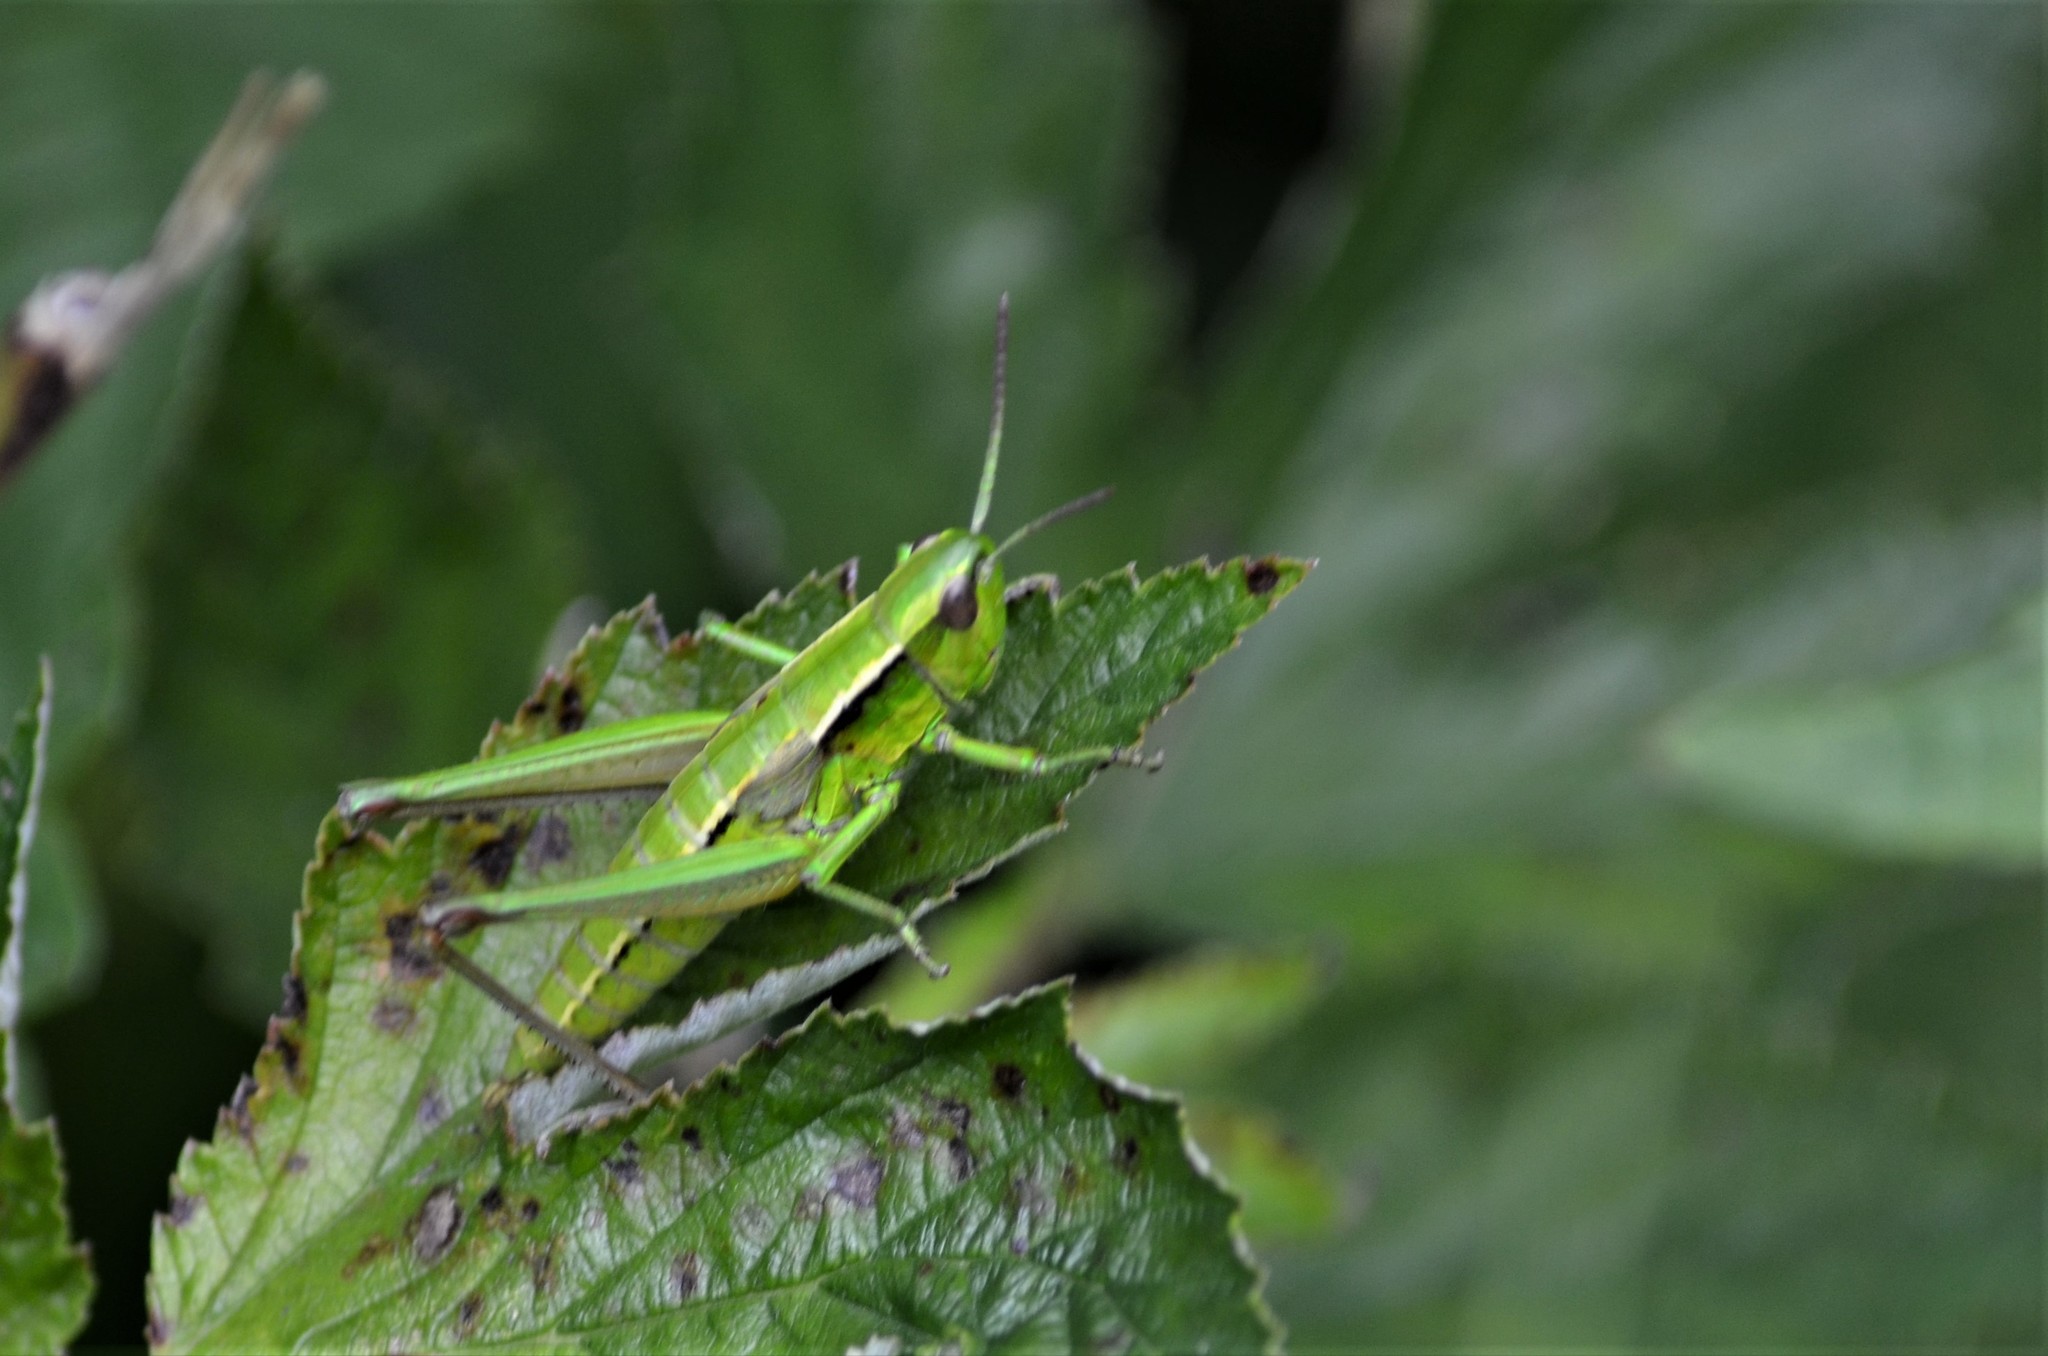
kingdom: Animalia
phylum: Arthropoda
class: Insecta
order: Orthoptera
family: Acrididae
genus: Euthystira
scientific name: Euthystira brachyptera
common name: Small gold grasshopper
